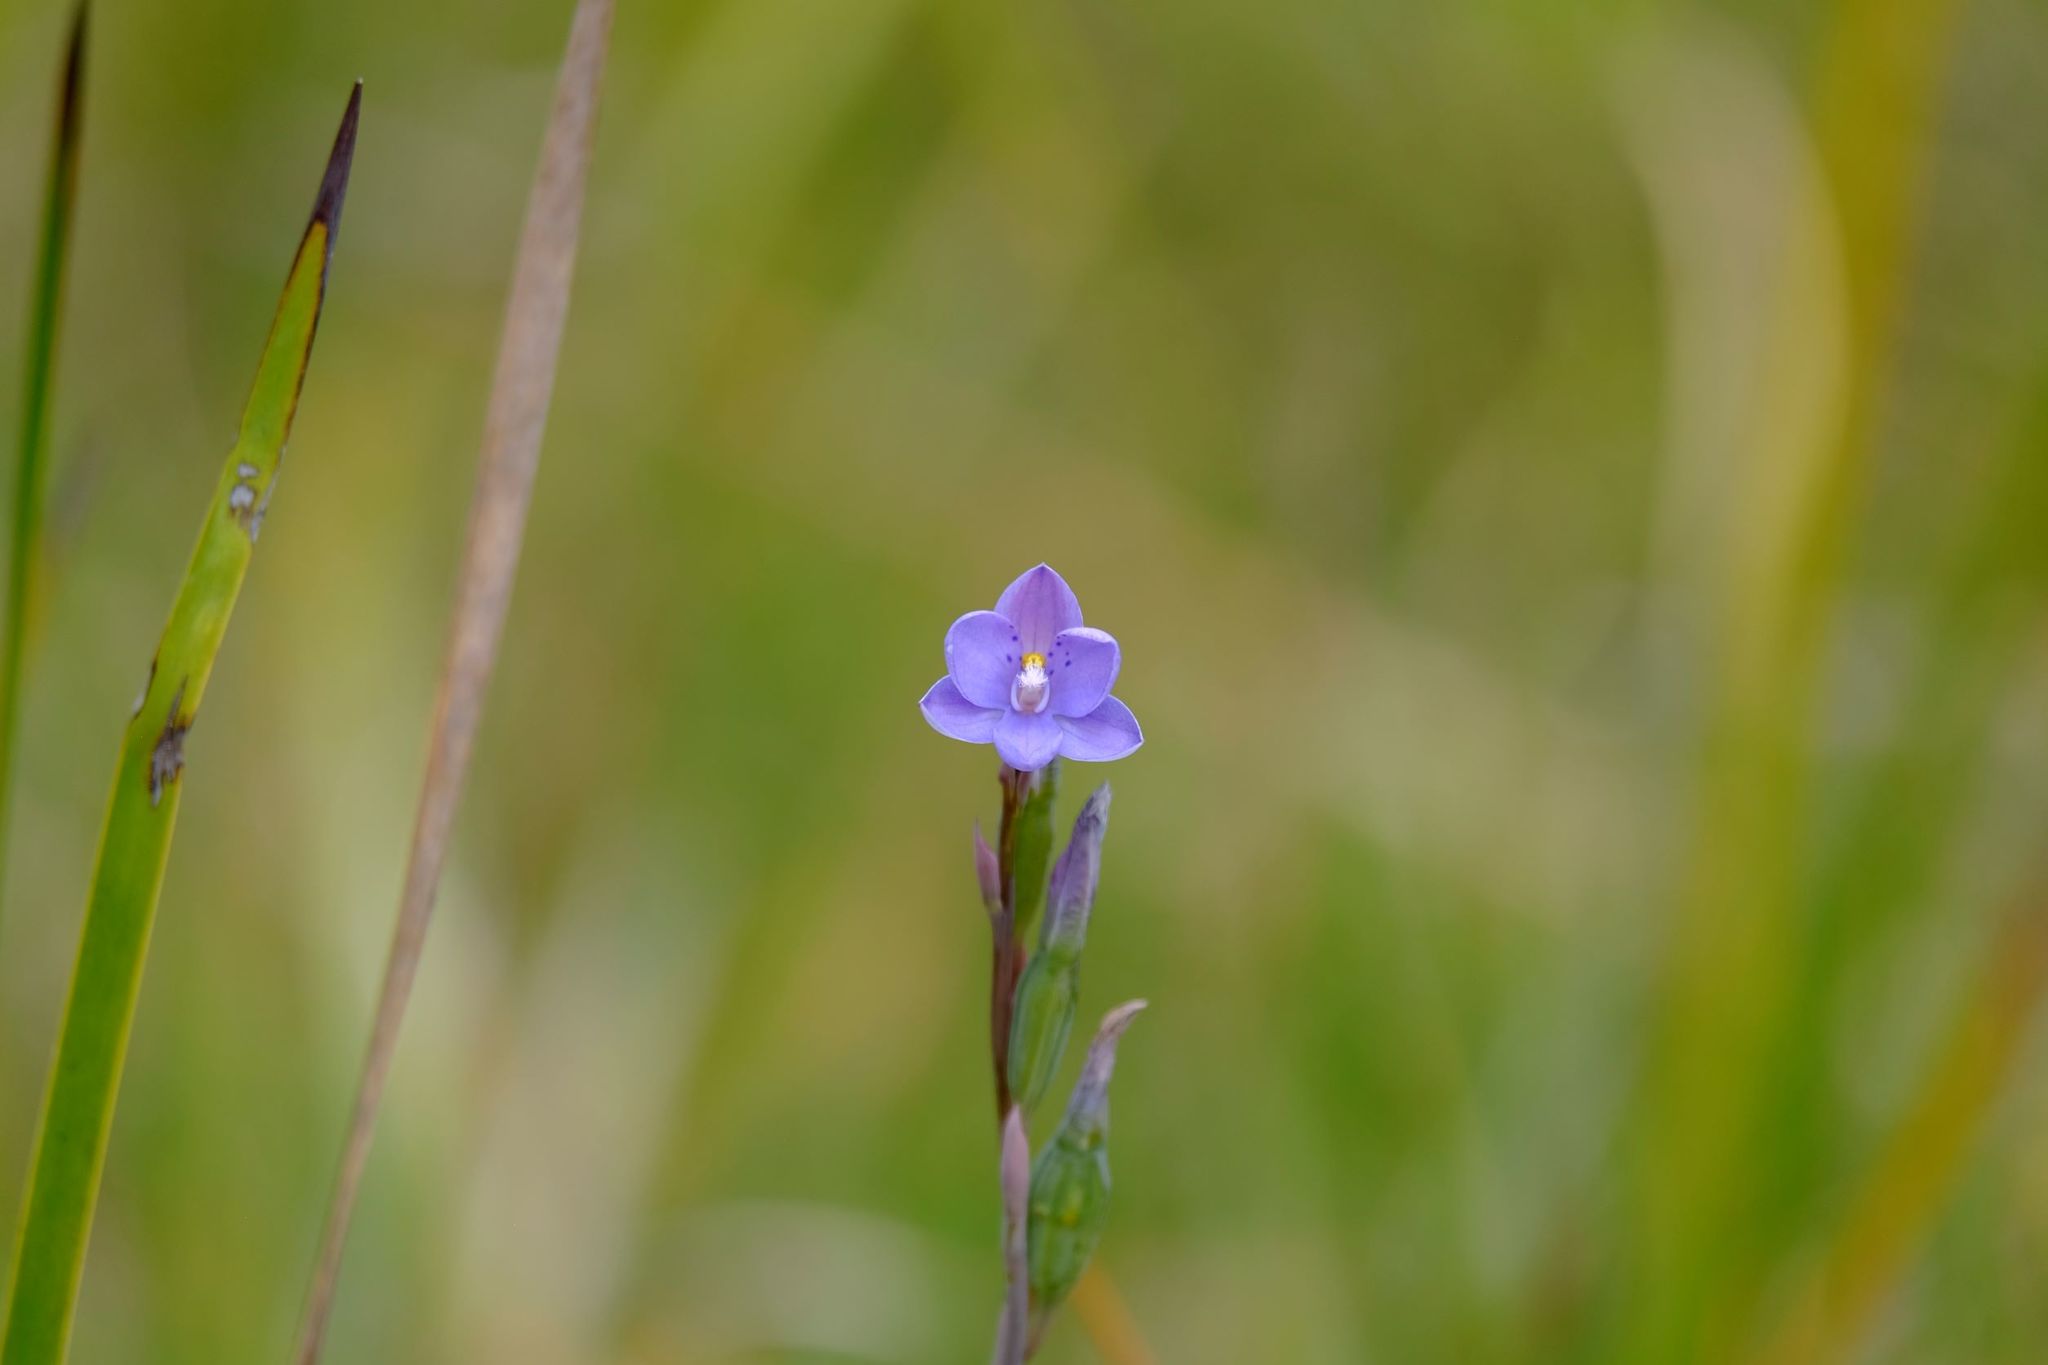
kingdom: Plantae
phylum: Tracheophyta
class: Liliopsida
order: Asparagales
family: Orchidaceae
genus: Thelymitra
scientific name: Thelymitra ixioides
